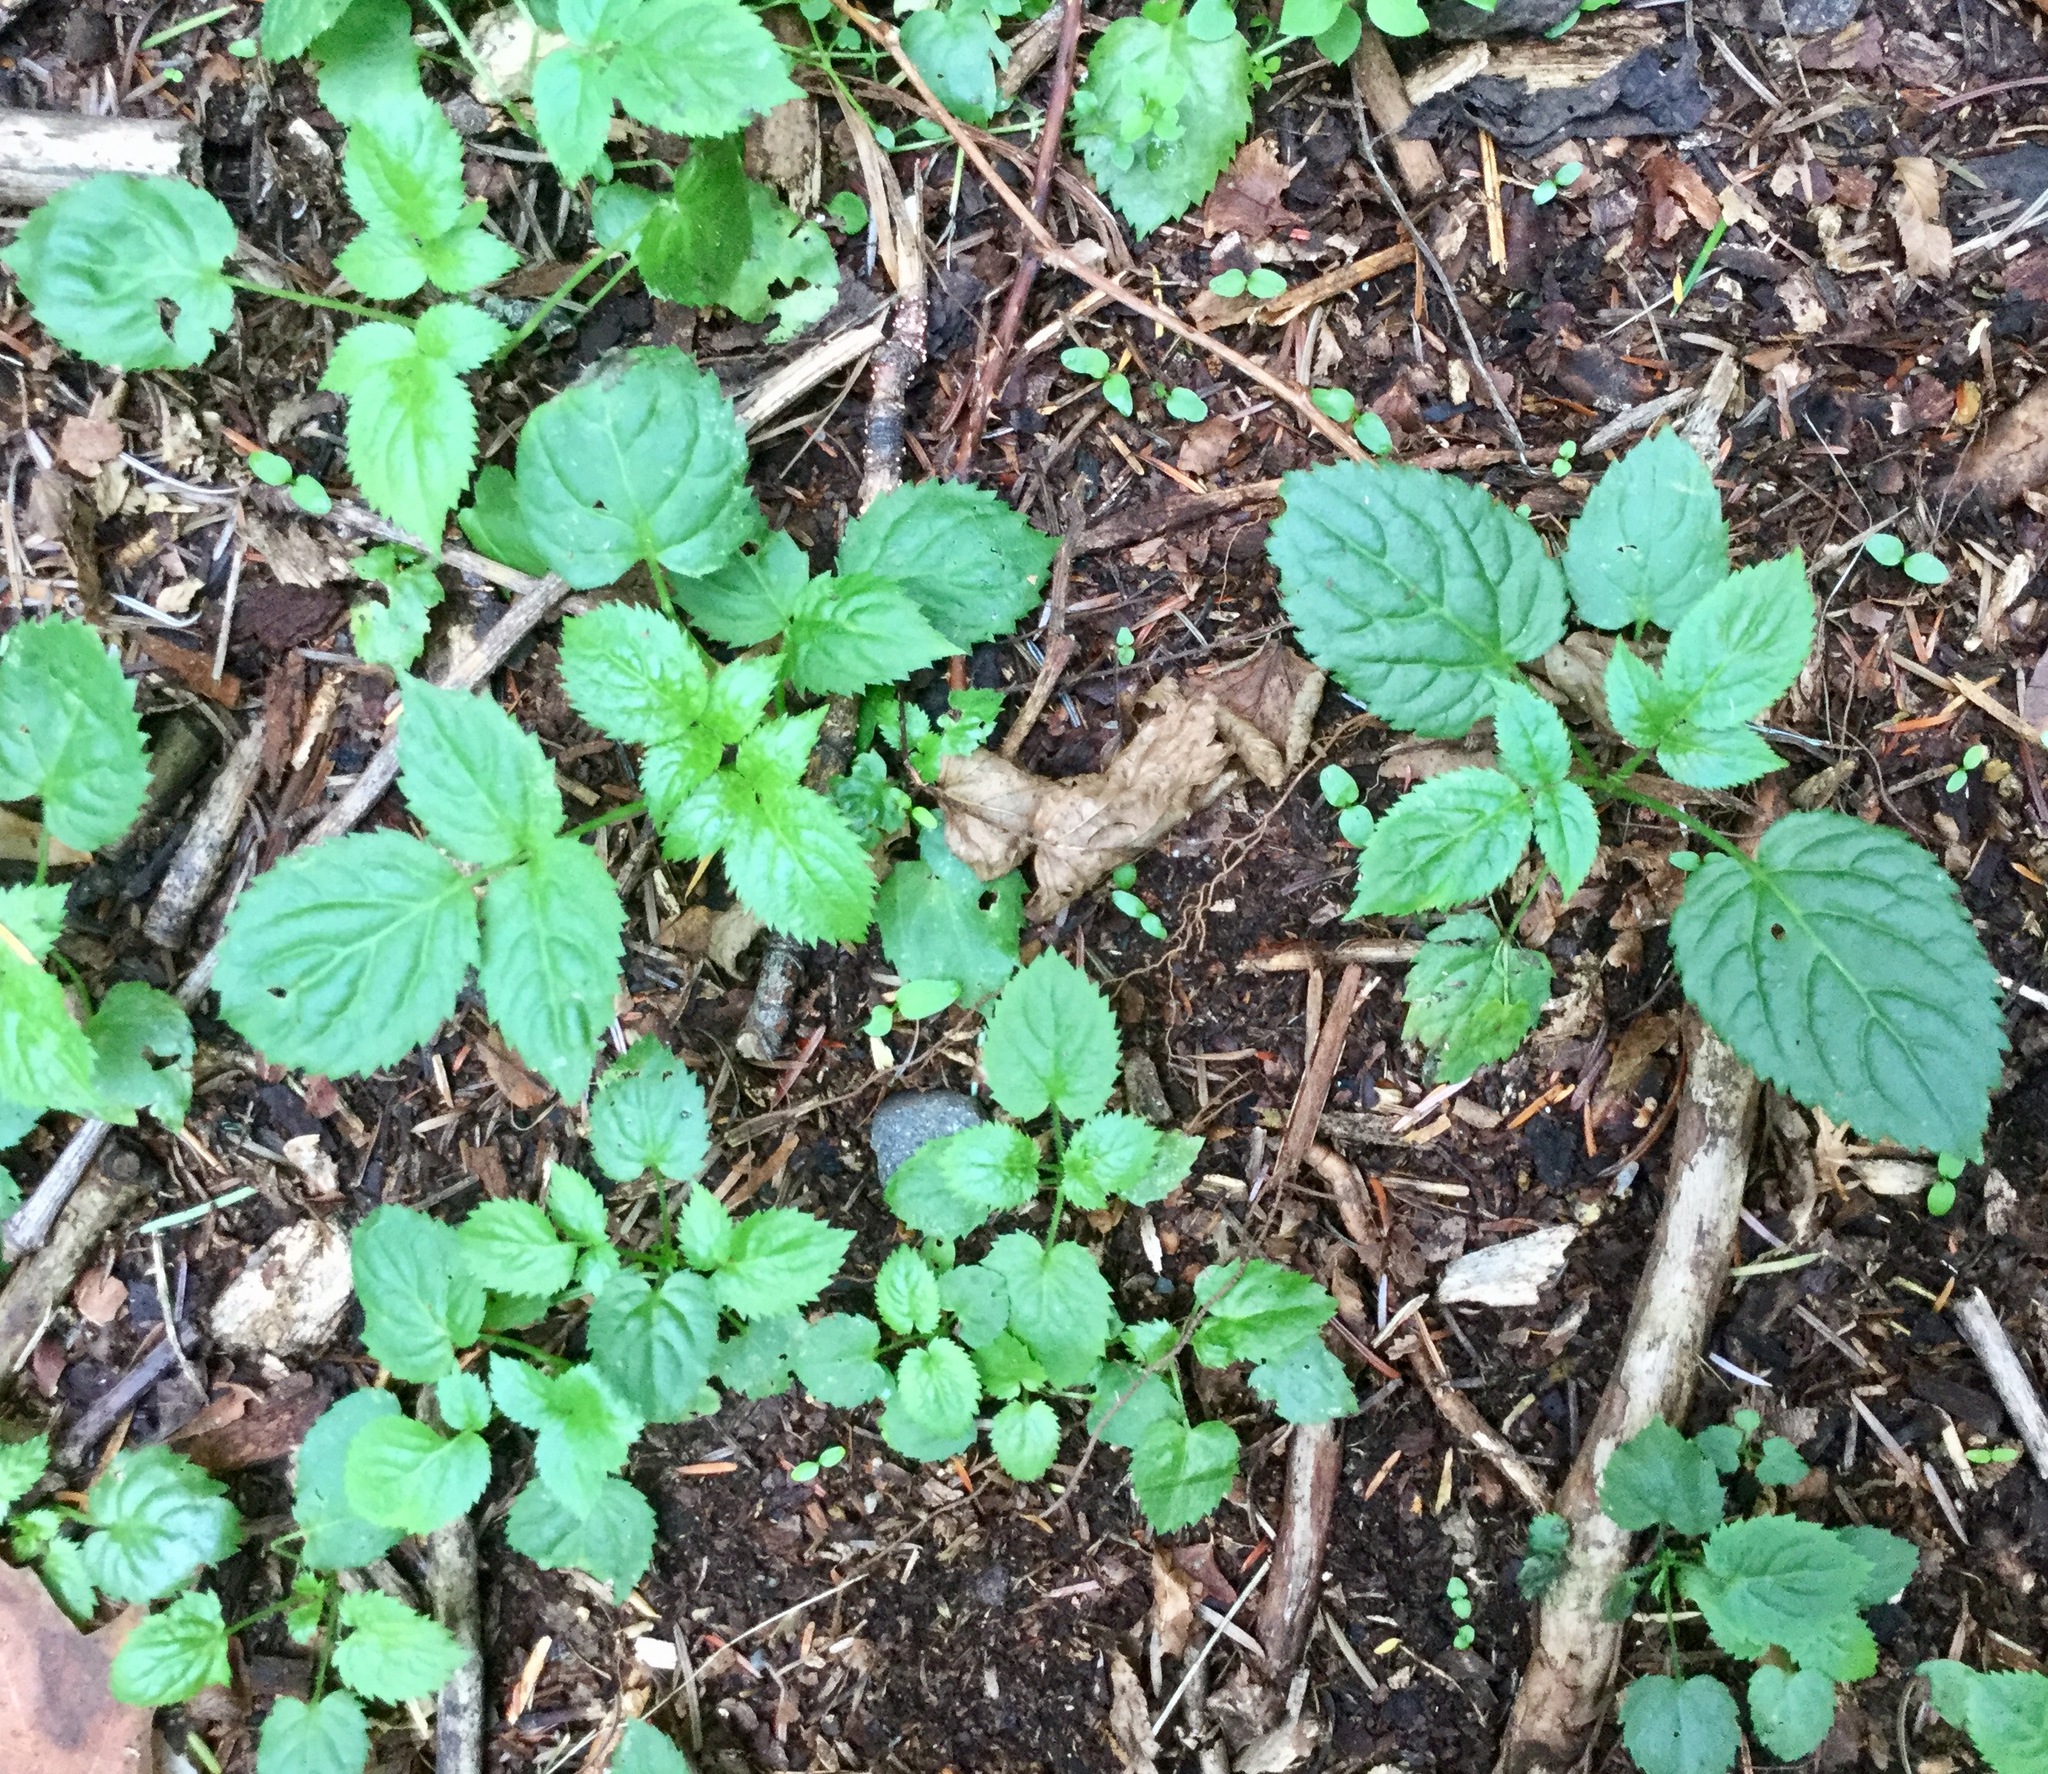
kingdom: Plantae
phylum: Tracheophyta
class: Magnoliopsida
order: Rosales
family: Urticaceae
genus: Urtica
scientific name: Urtica dioica
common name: Common nettle
